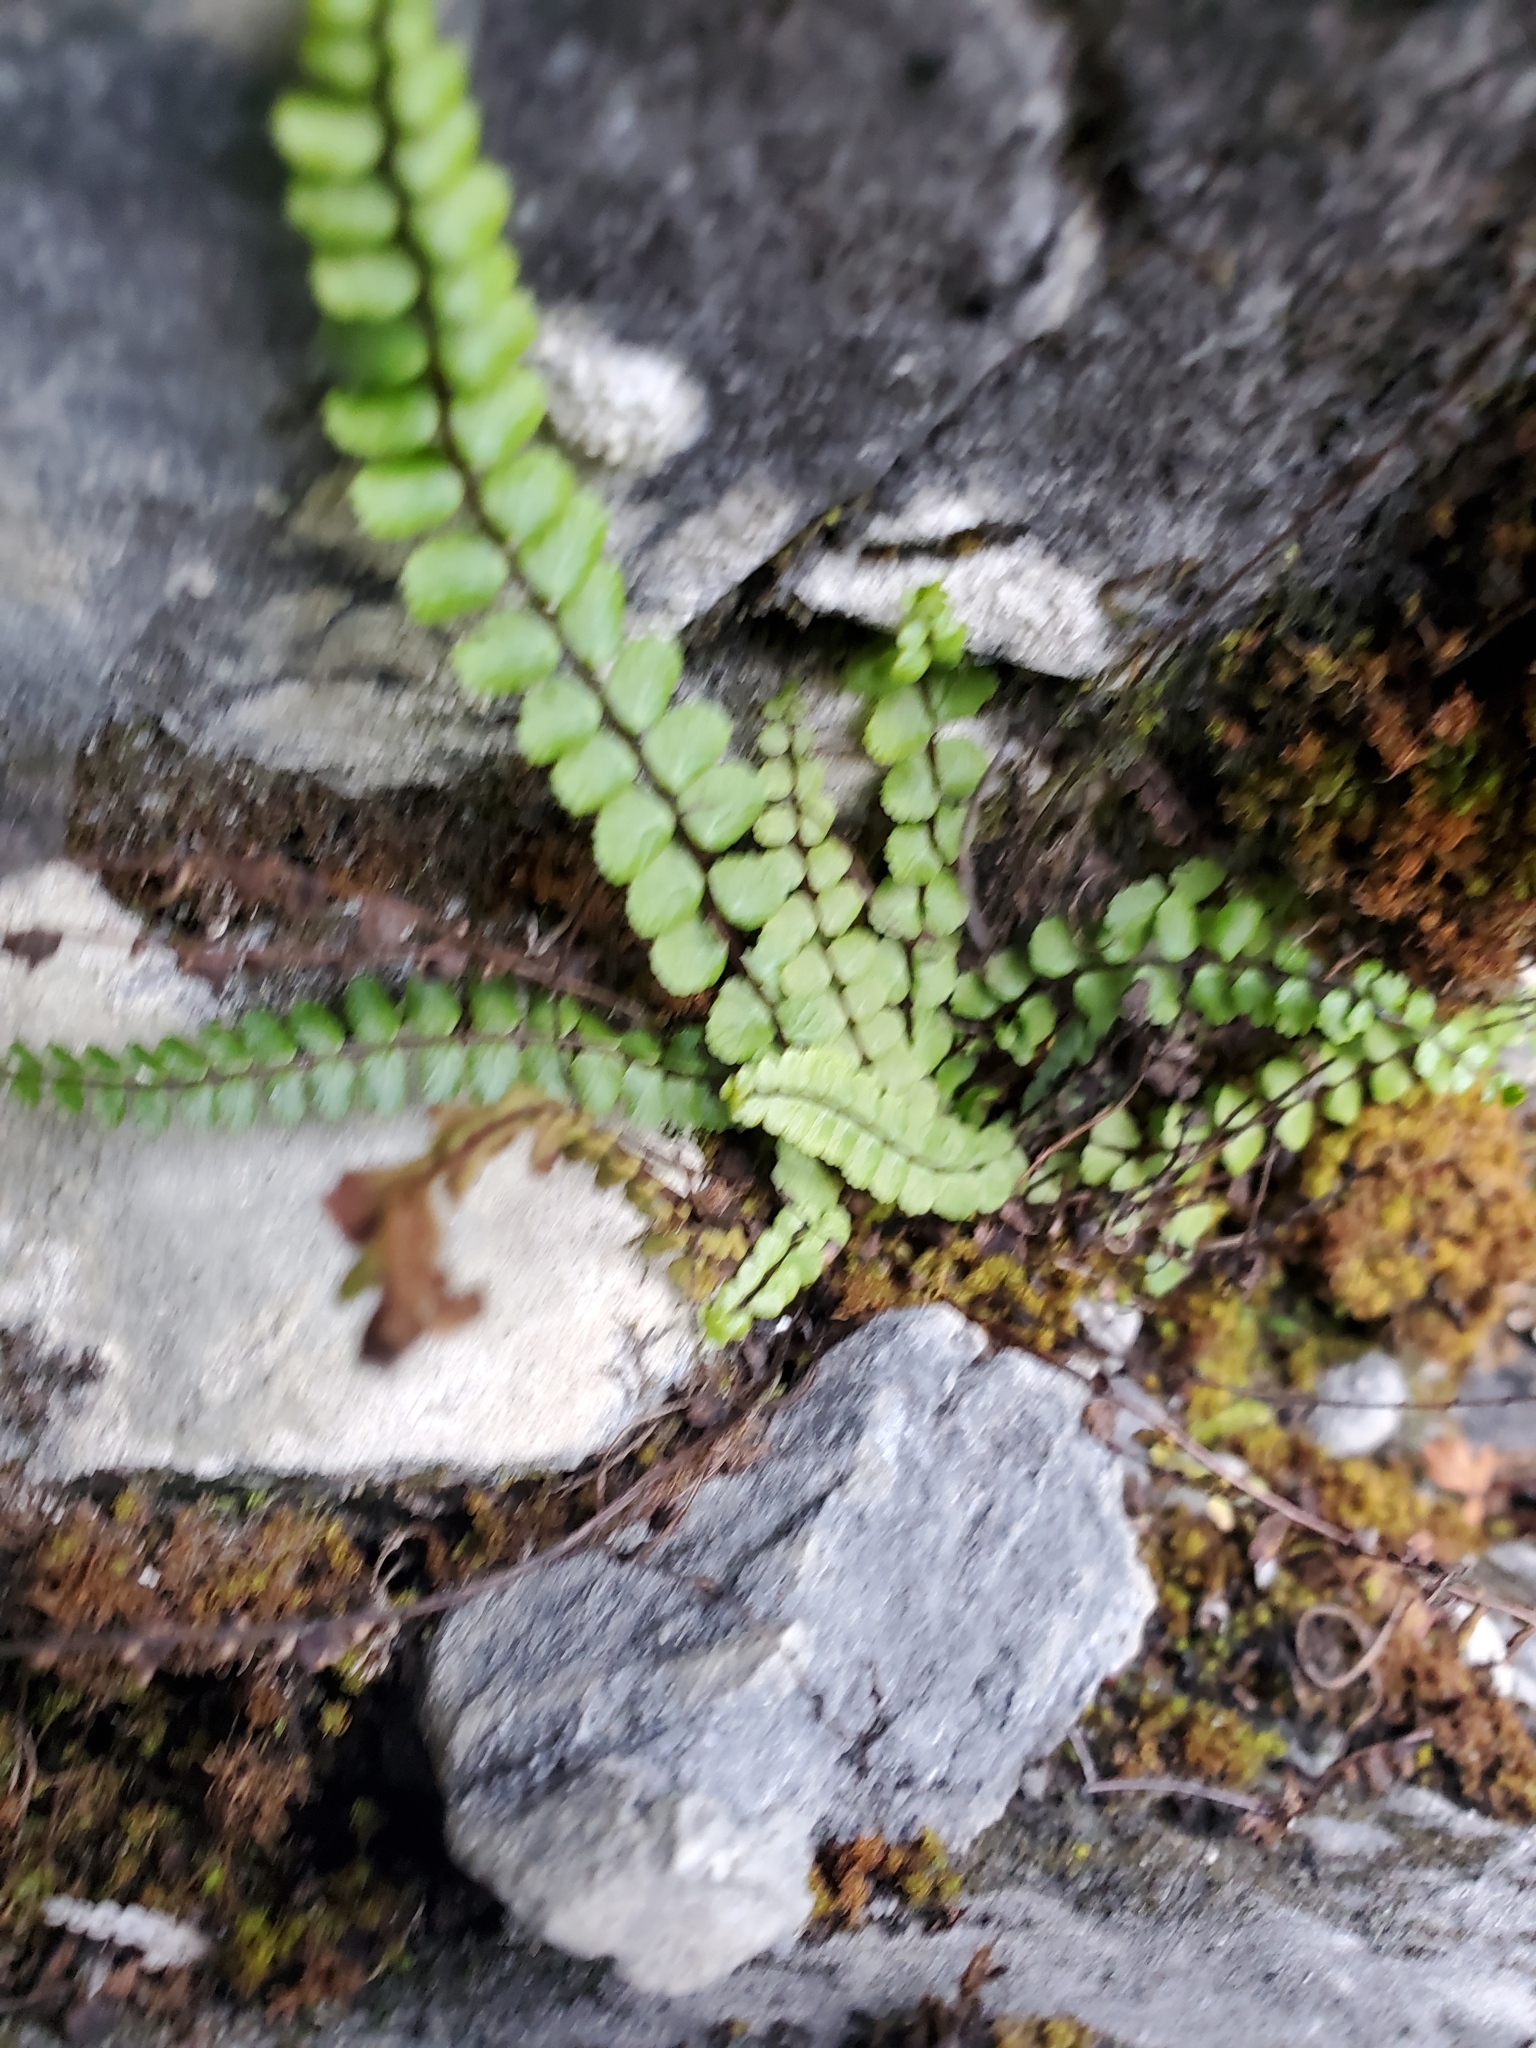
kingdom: Plantae
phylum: Tracheophyta
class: Polypodiopsida
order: Polypodiales
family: Aspleniaceae
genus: Asplenium
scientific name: Asplenium trichomanes
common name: Maidenhair spleenwort
